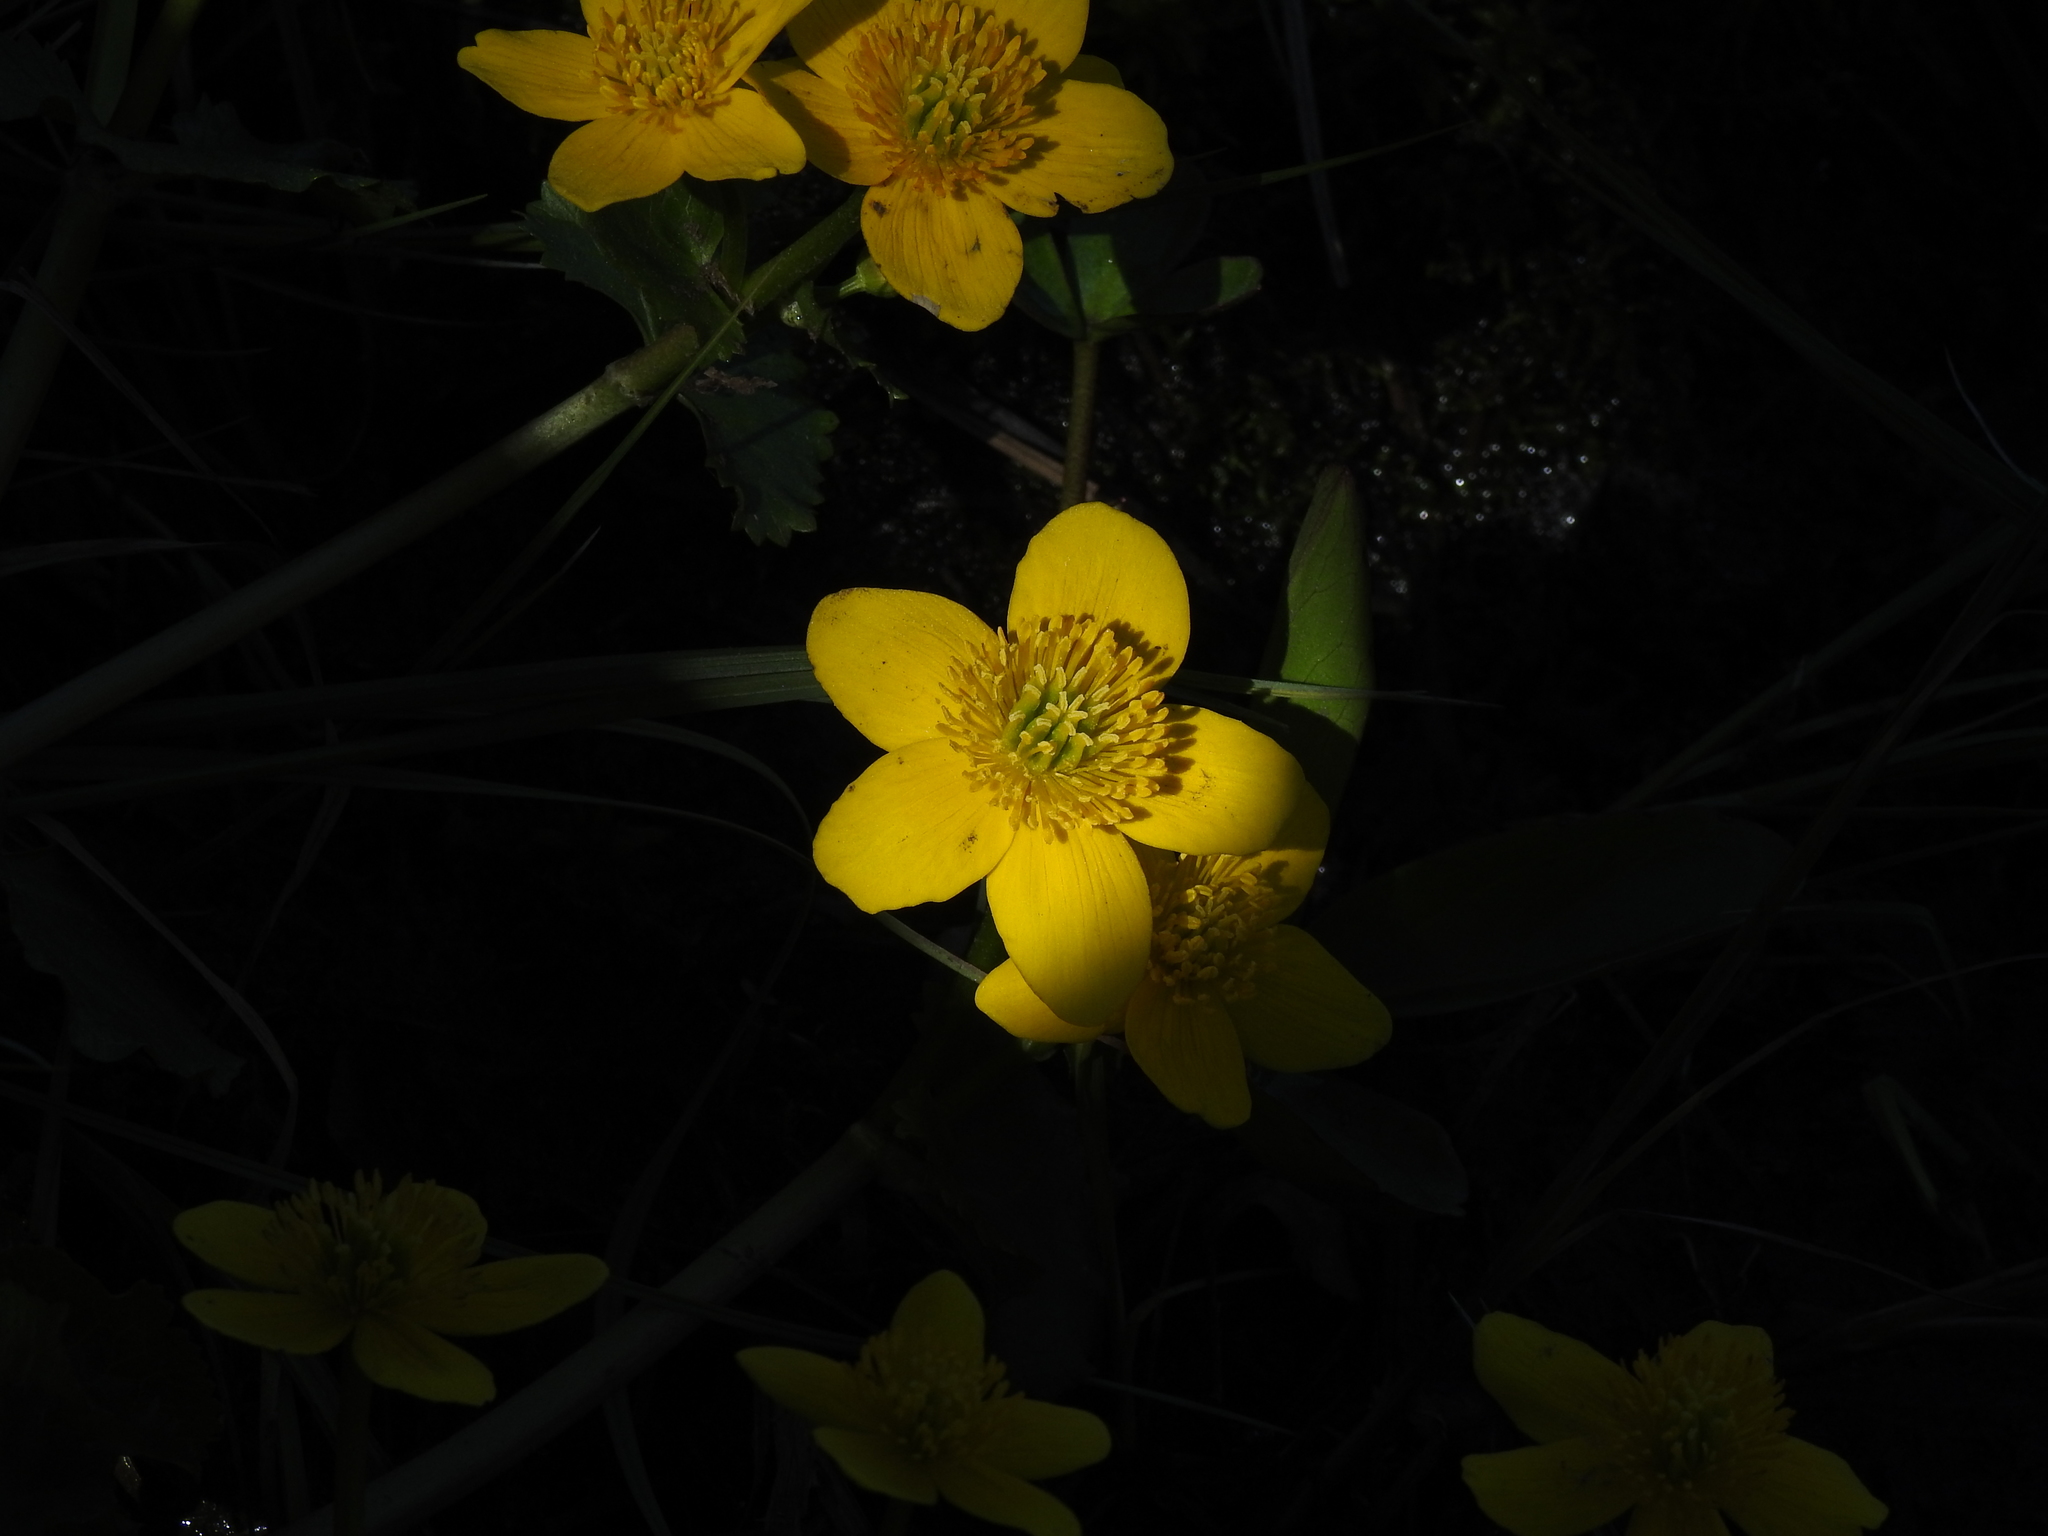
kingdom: Plantae
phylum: Tracheophyta
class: Magnoliopsida
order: Ranunculales
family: Ranunculaceae
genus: Caltha
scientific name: Caltha palustris
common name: Marsh marigold
